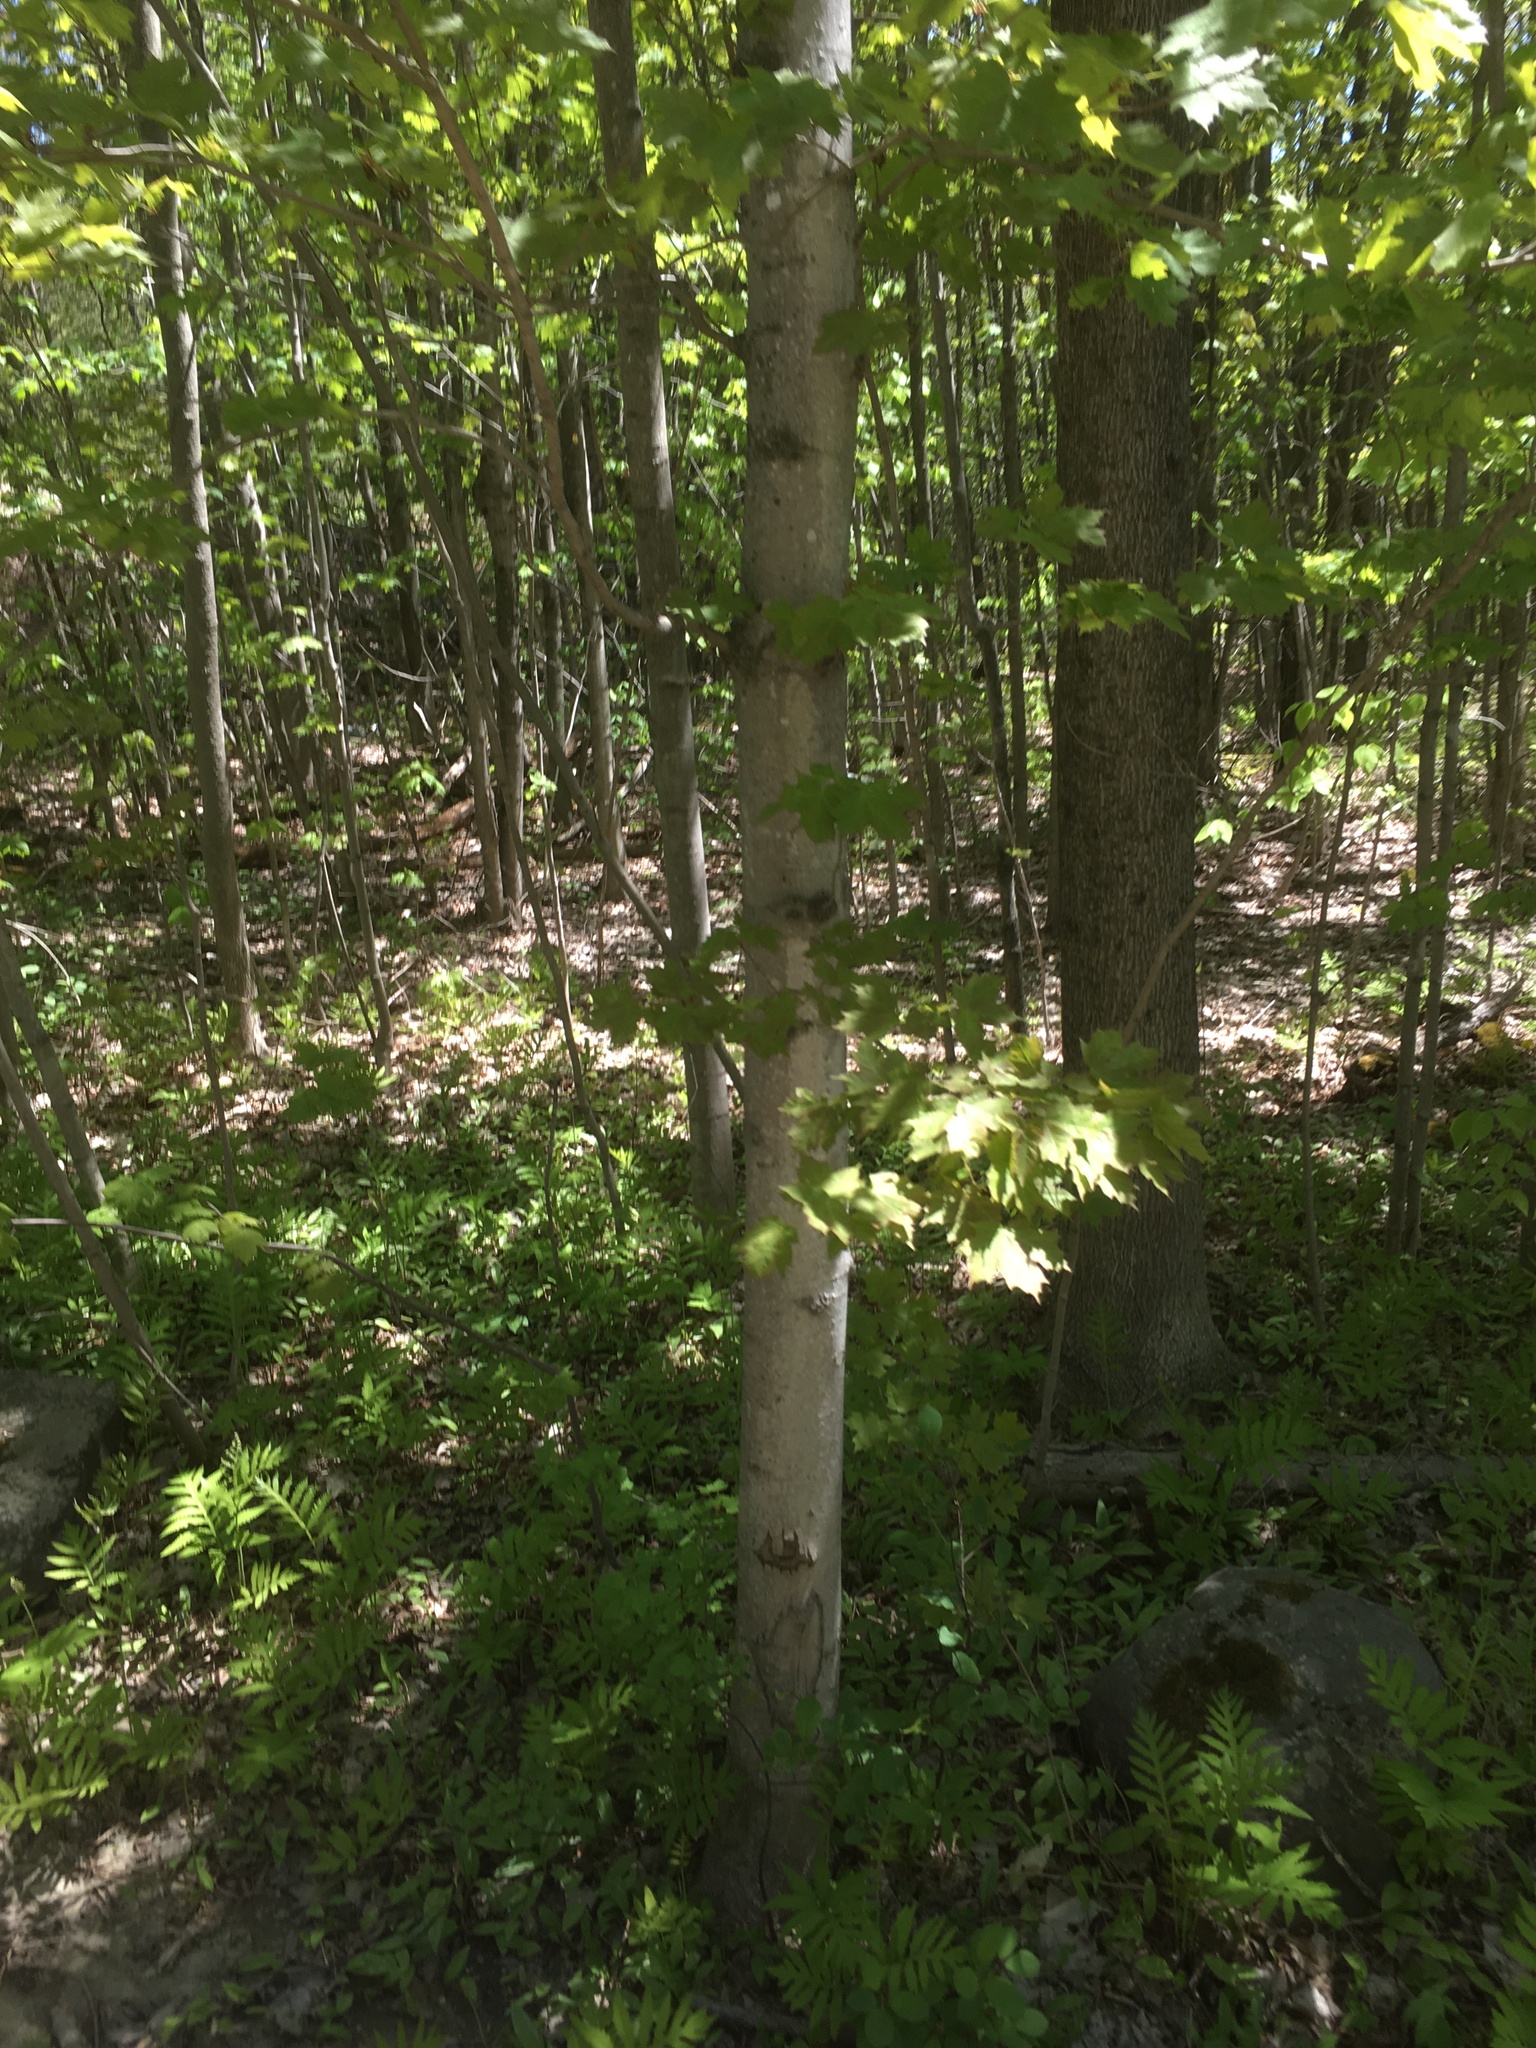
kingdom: Plantae
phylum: Tracheophyta
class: Magnoliopsida
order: Sapindales
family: Sapindaceae
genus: Acer
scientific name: Acer saccharum
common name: Sugar maple
